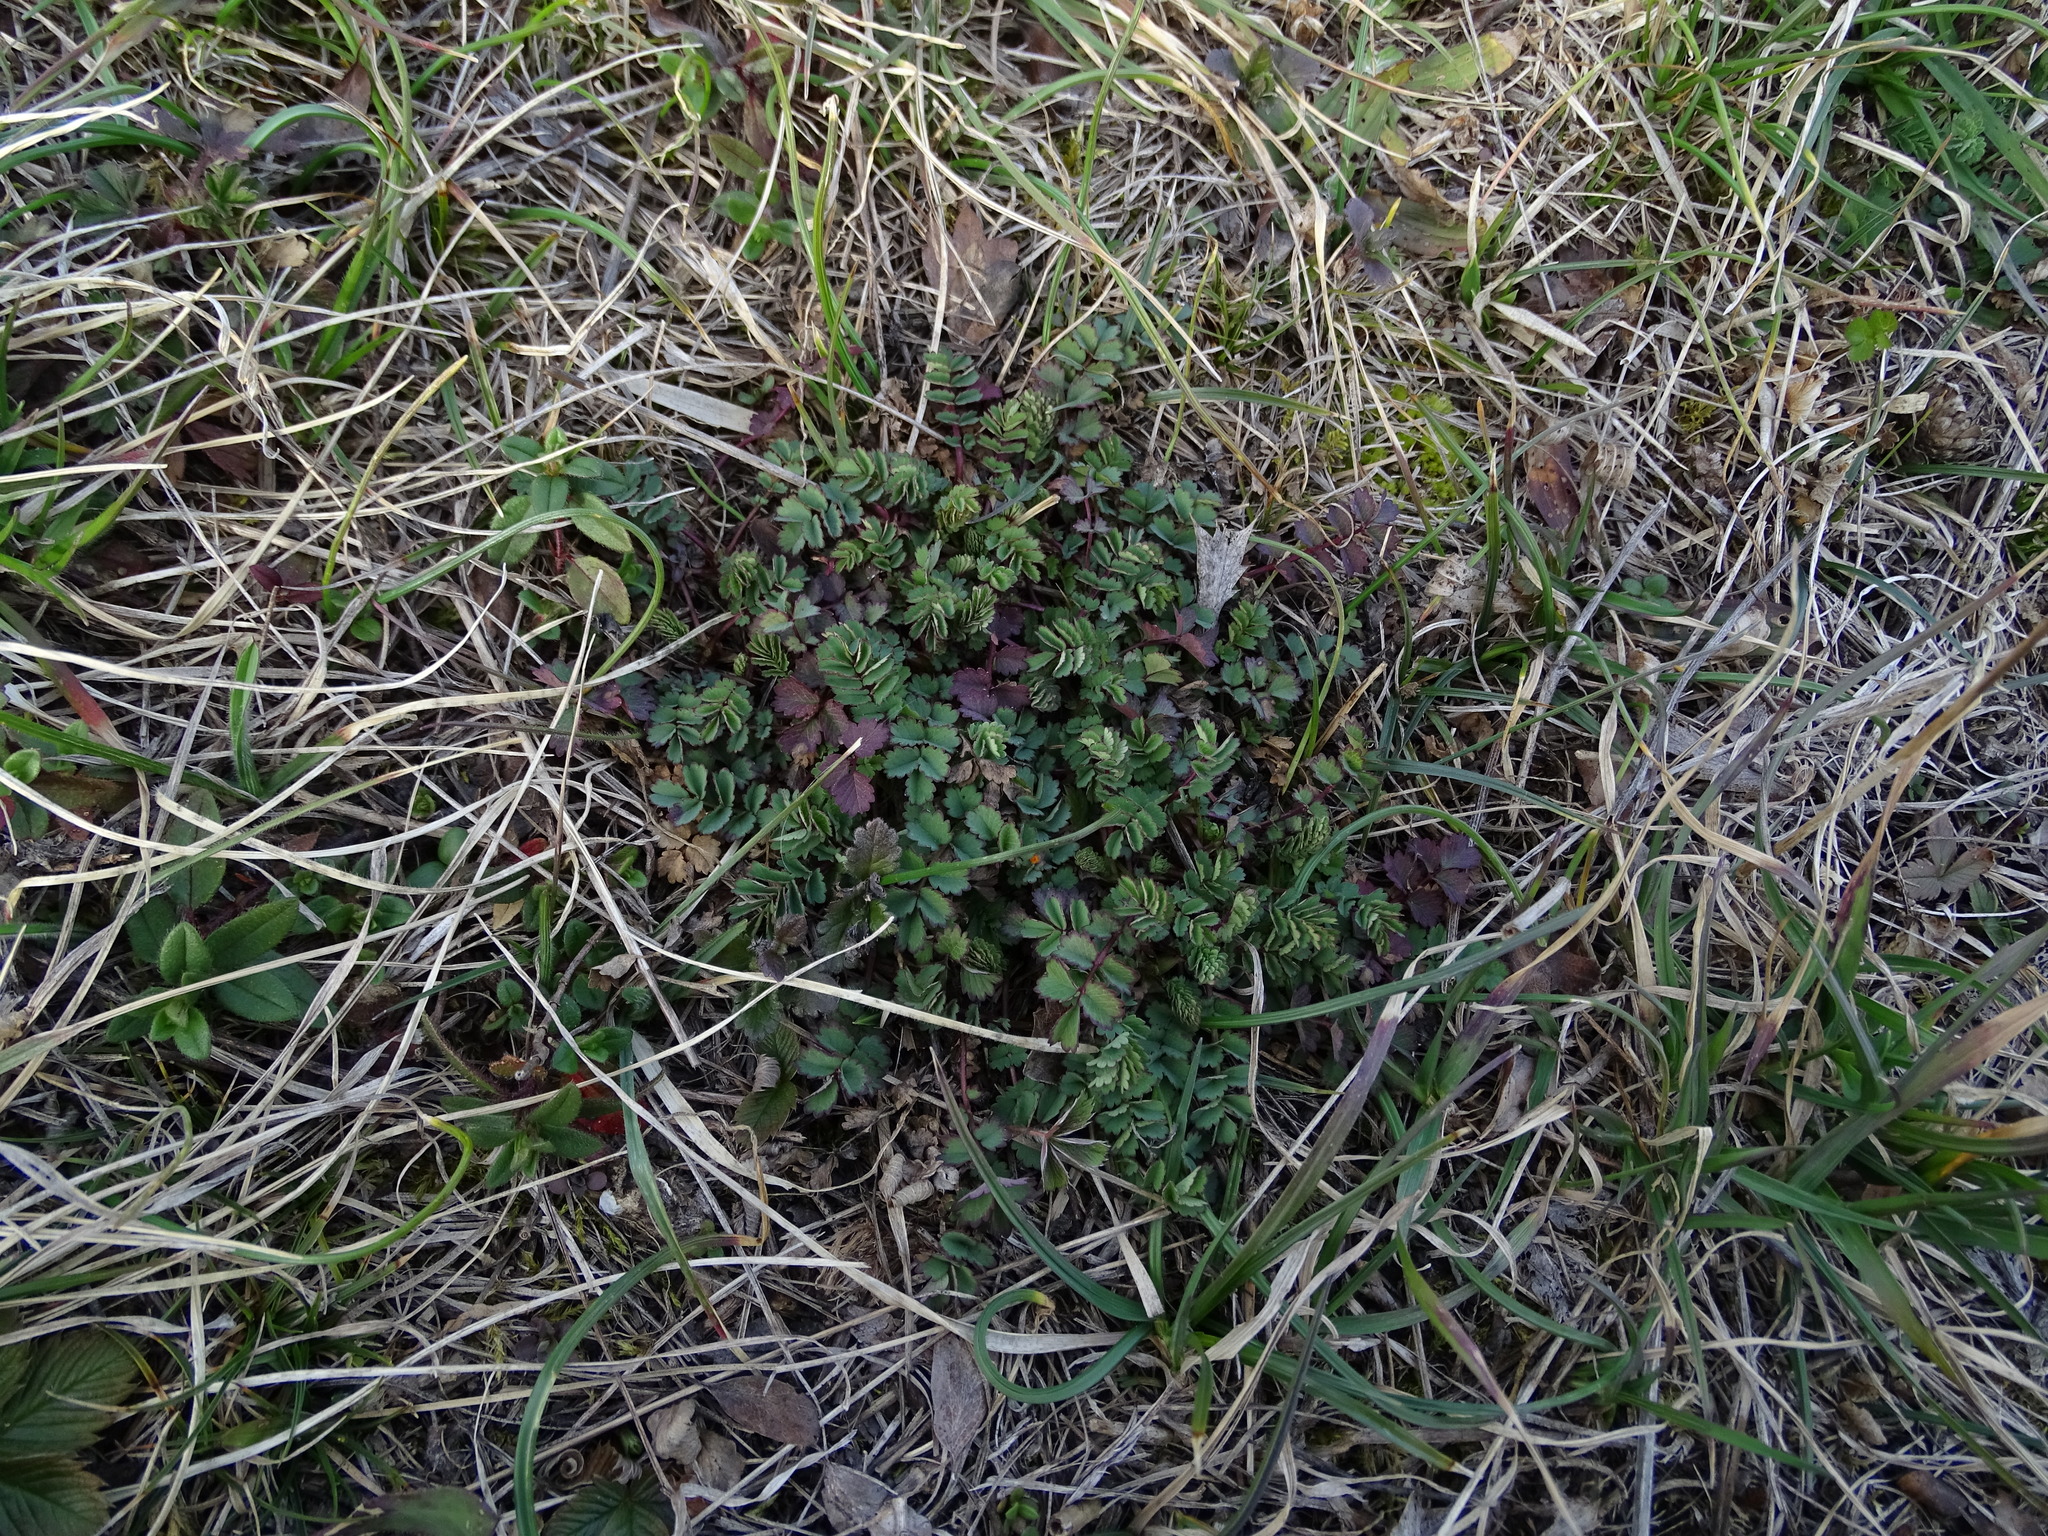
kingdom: Plantae
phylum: Tracheophyta
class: Magnoliopsida
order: Rosales
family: Rosaceae
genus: Poterium
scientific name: Poterium sanguisorba
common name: Salad burnet
